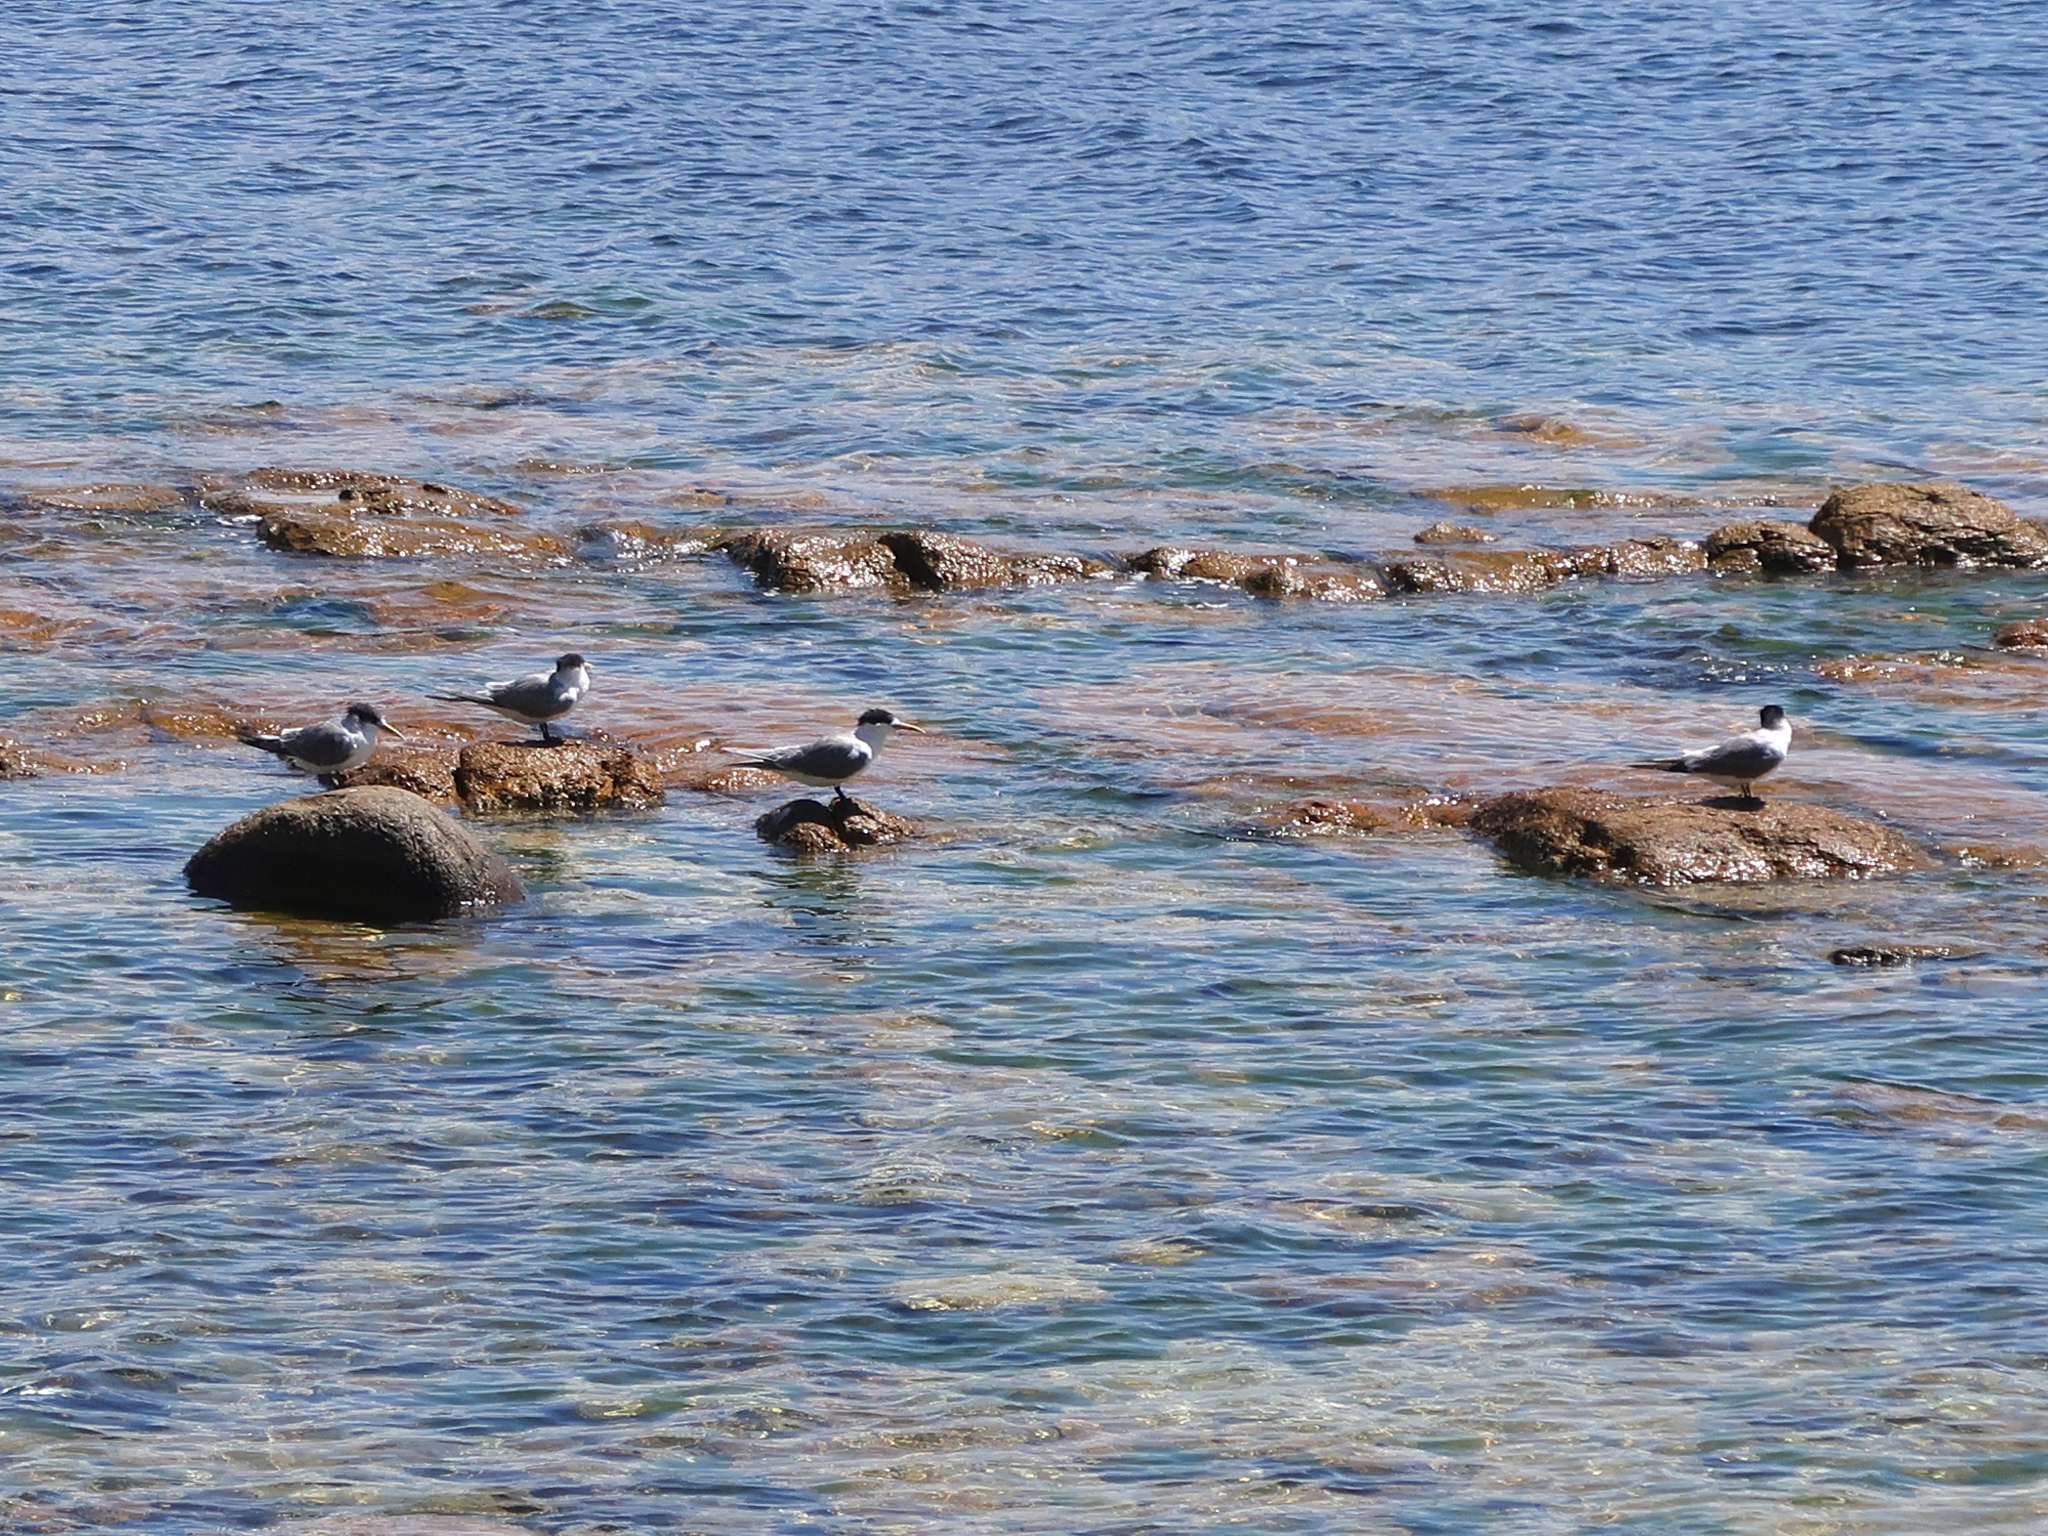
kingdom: Animalia
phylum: Chordata
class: Aves
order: Charadriiformes
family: Laridae
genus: Thalasseus
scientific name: Thalasseus bergii
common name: Greater crested tern
